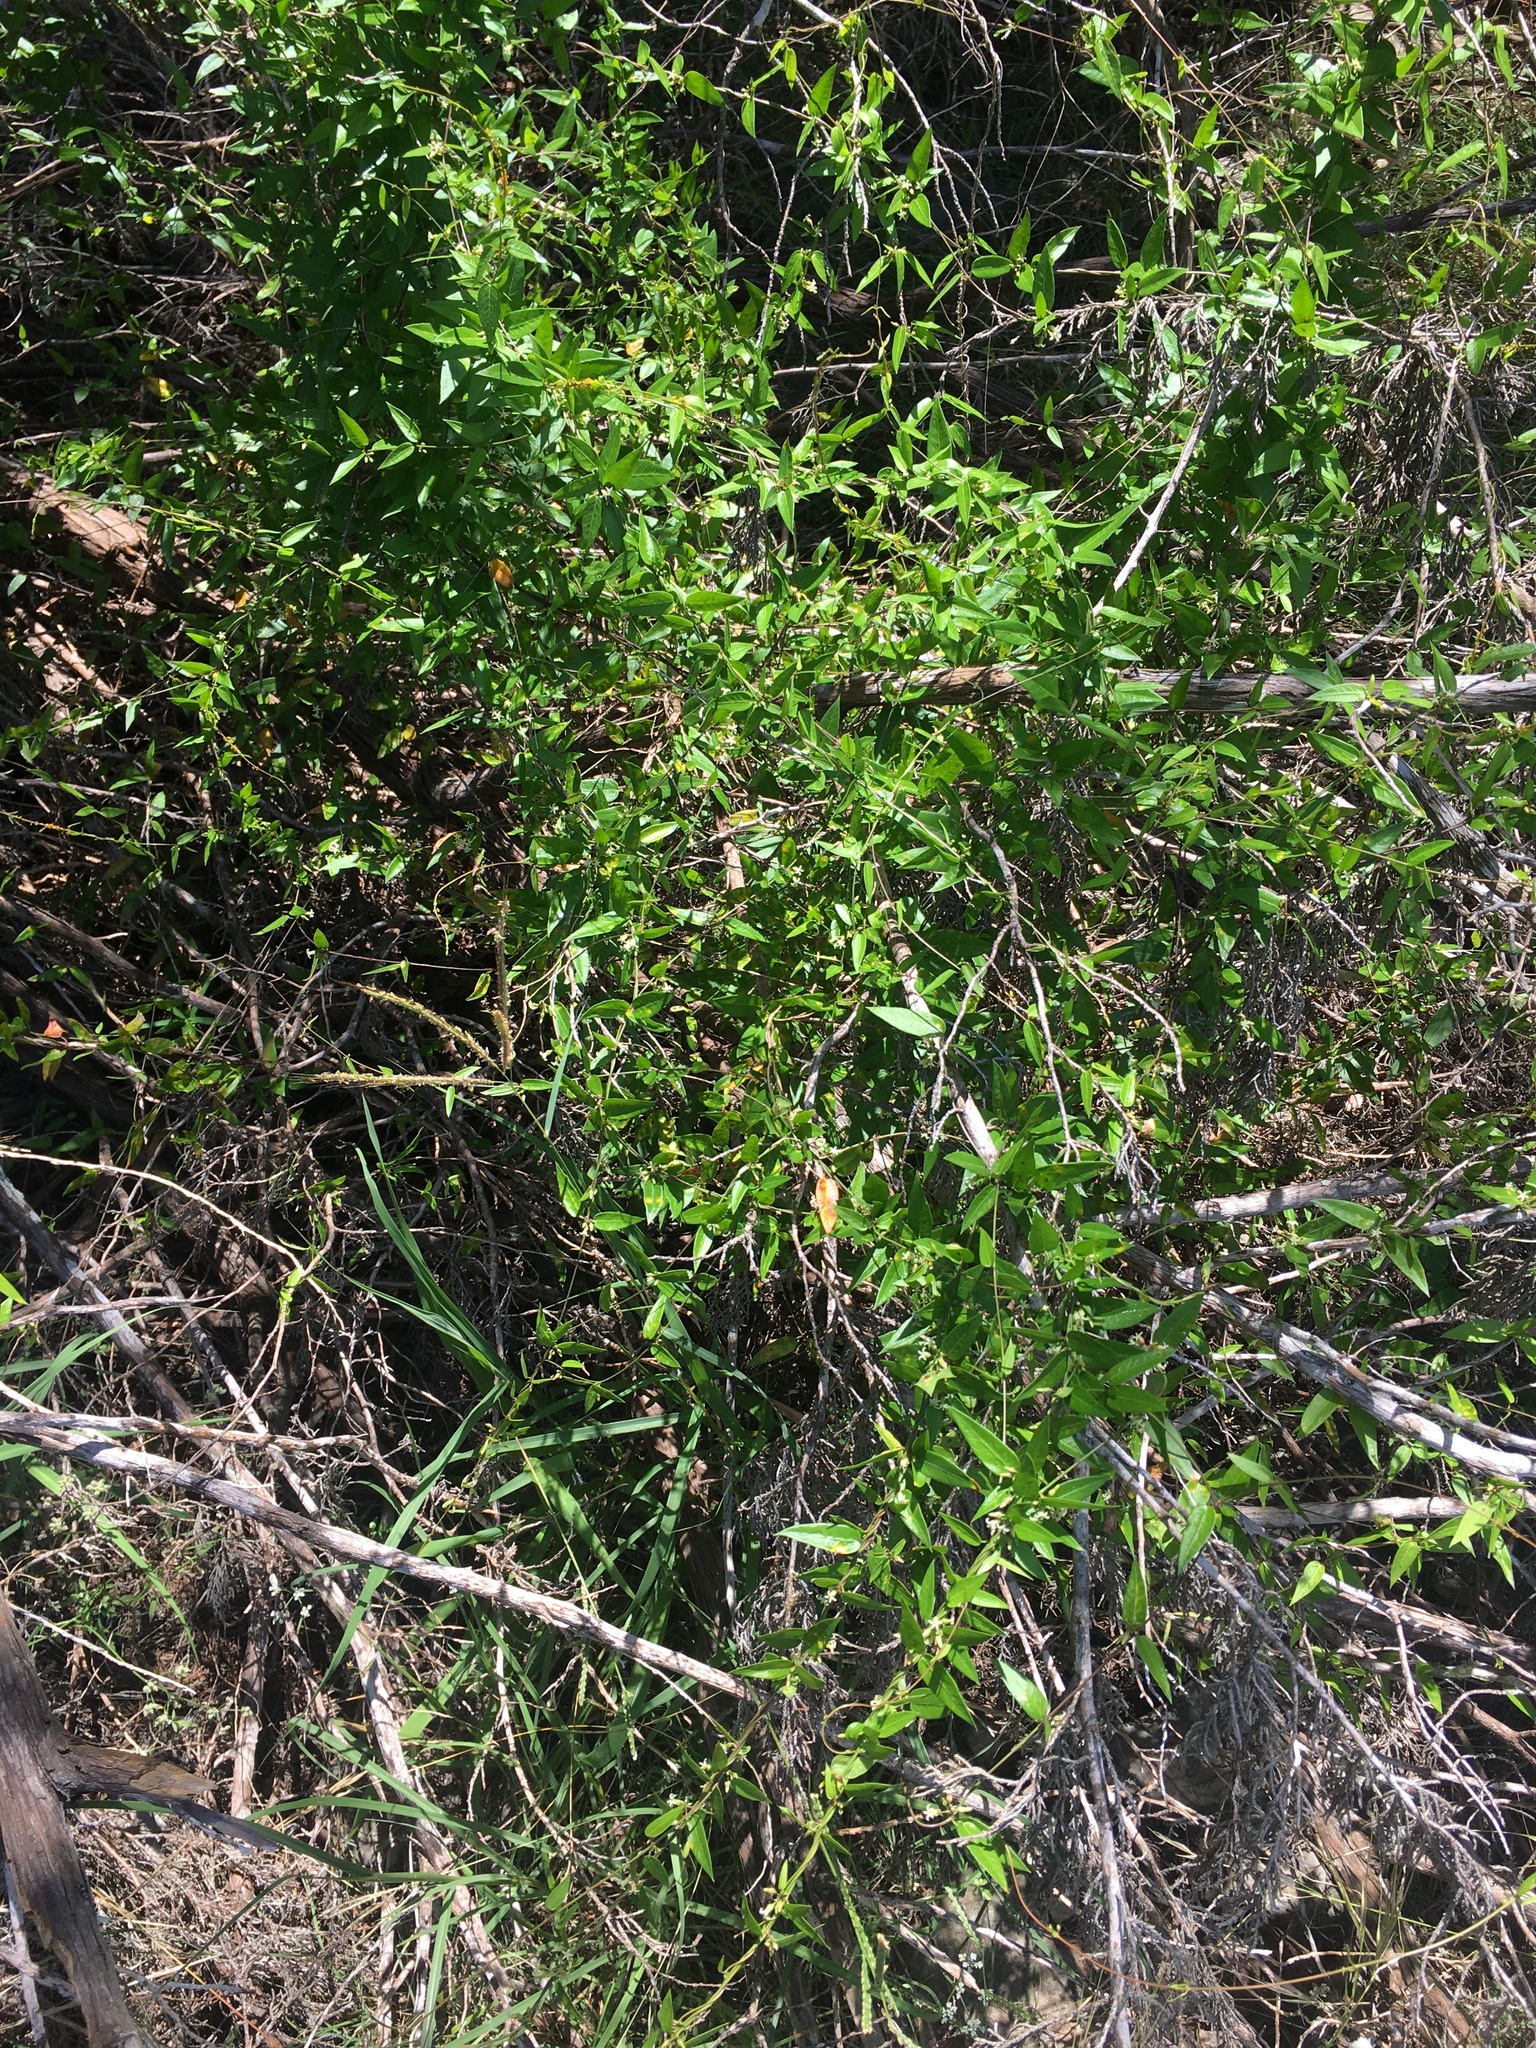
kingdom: Plantae
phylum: Tracheophyta
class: Magnoliopsida
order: Gentianales
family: Apocynaceae
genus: Metastelma
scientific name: Metastelma barbigerum
